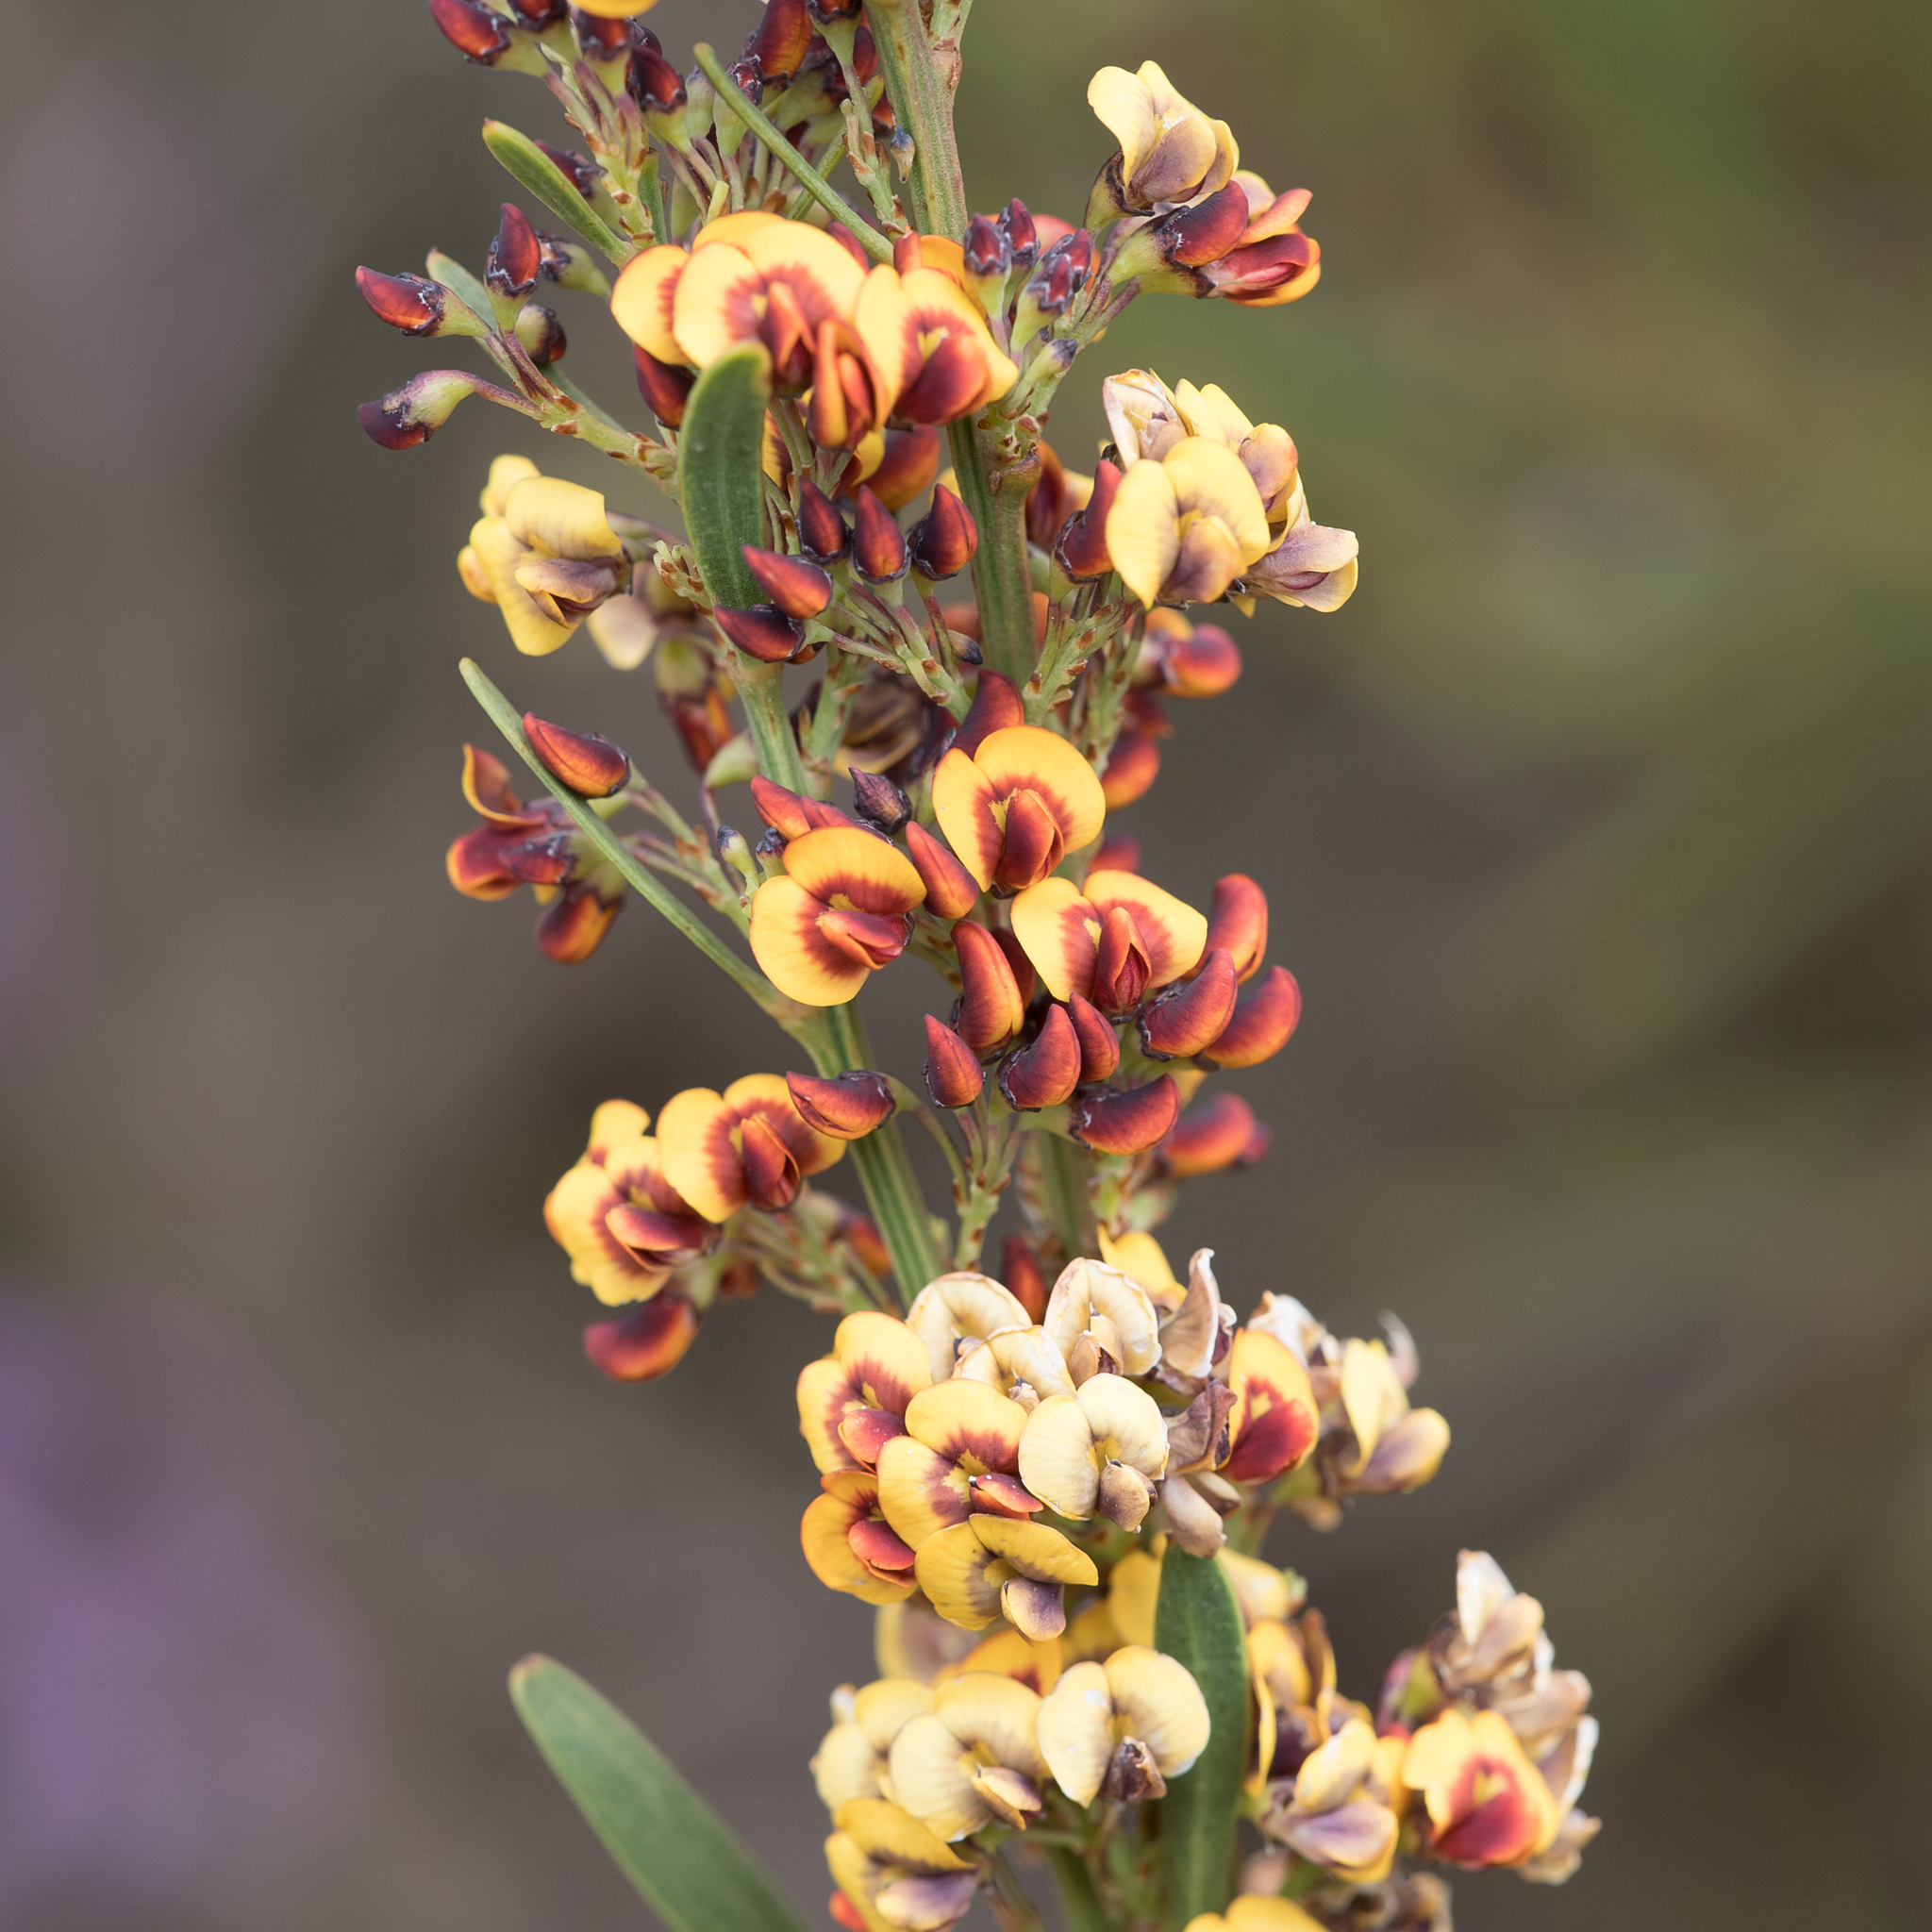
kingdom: Plantae
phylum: Tracheophyta
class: Magnoliopsida
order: Fabales
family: Fabaceae
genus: Daviesia
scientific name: Daviesia leptophylla
